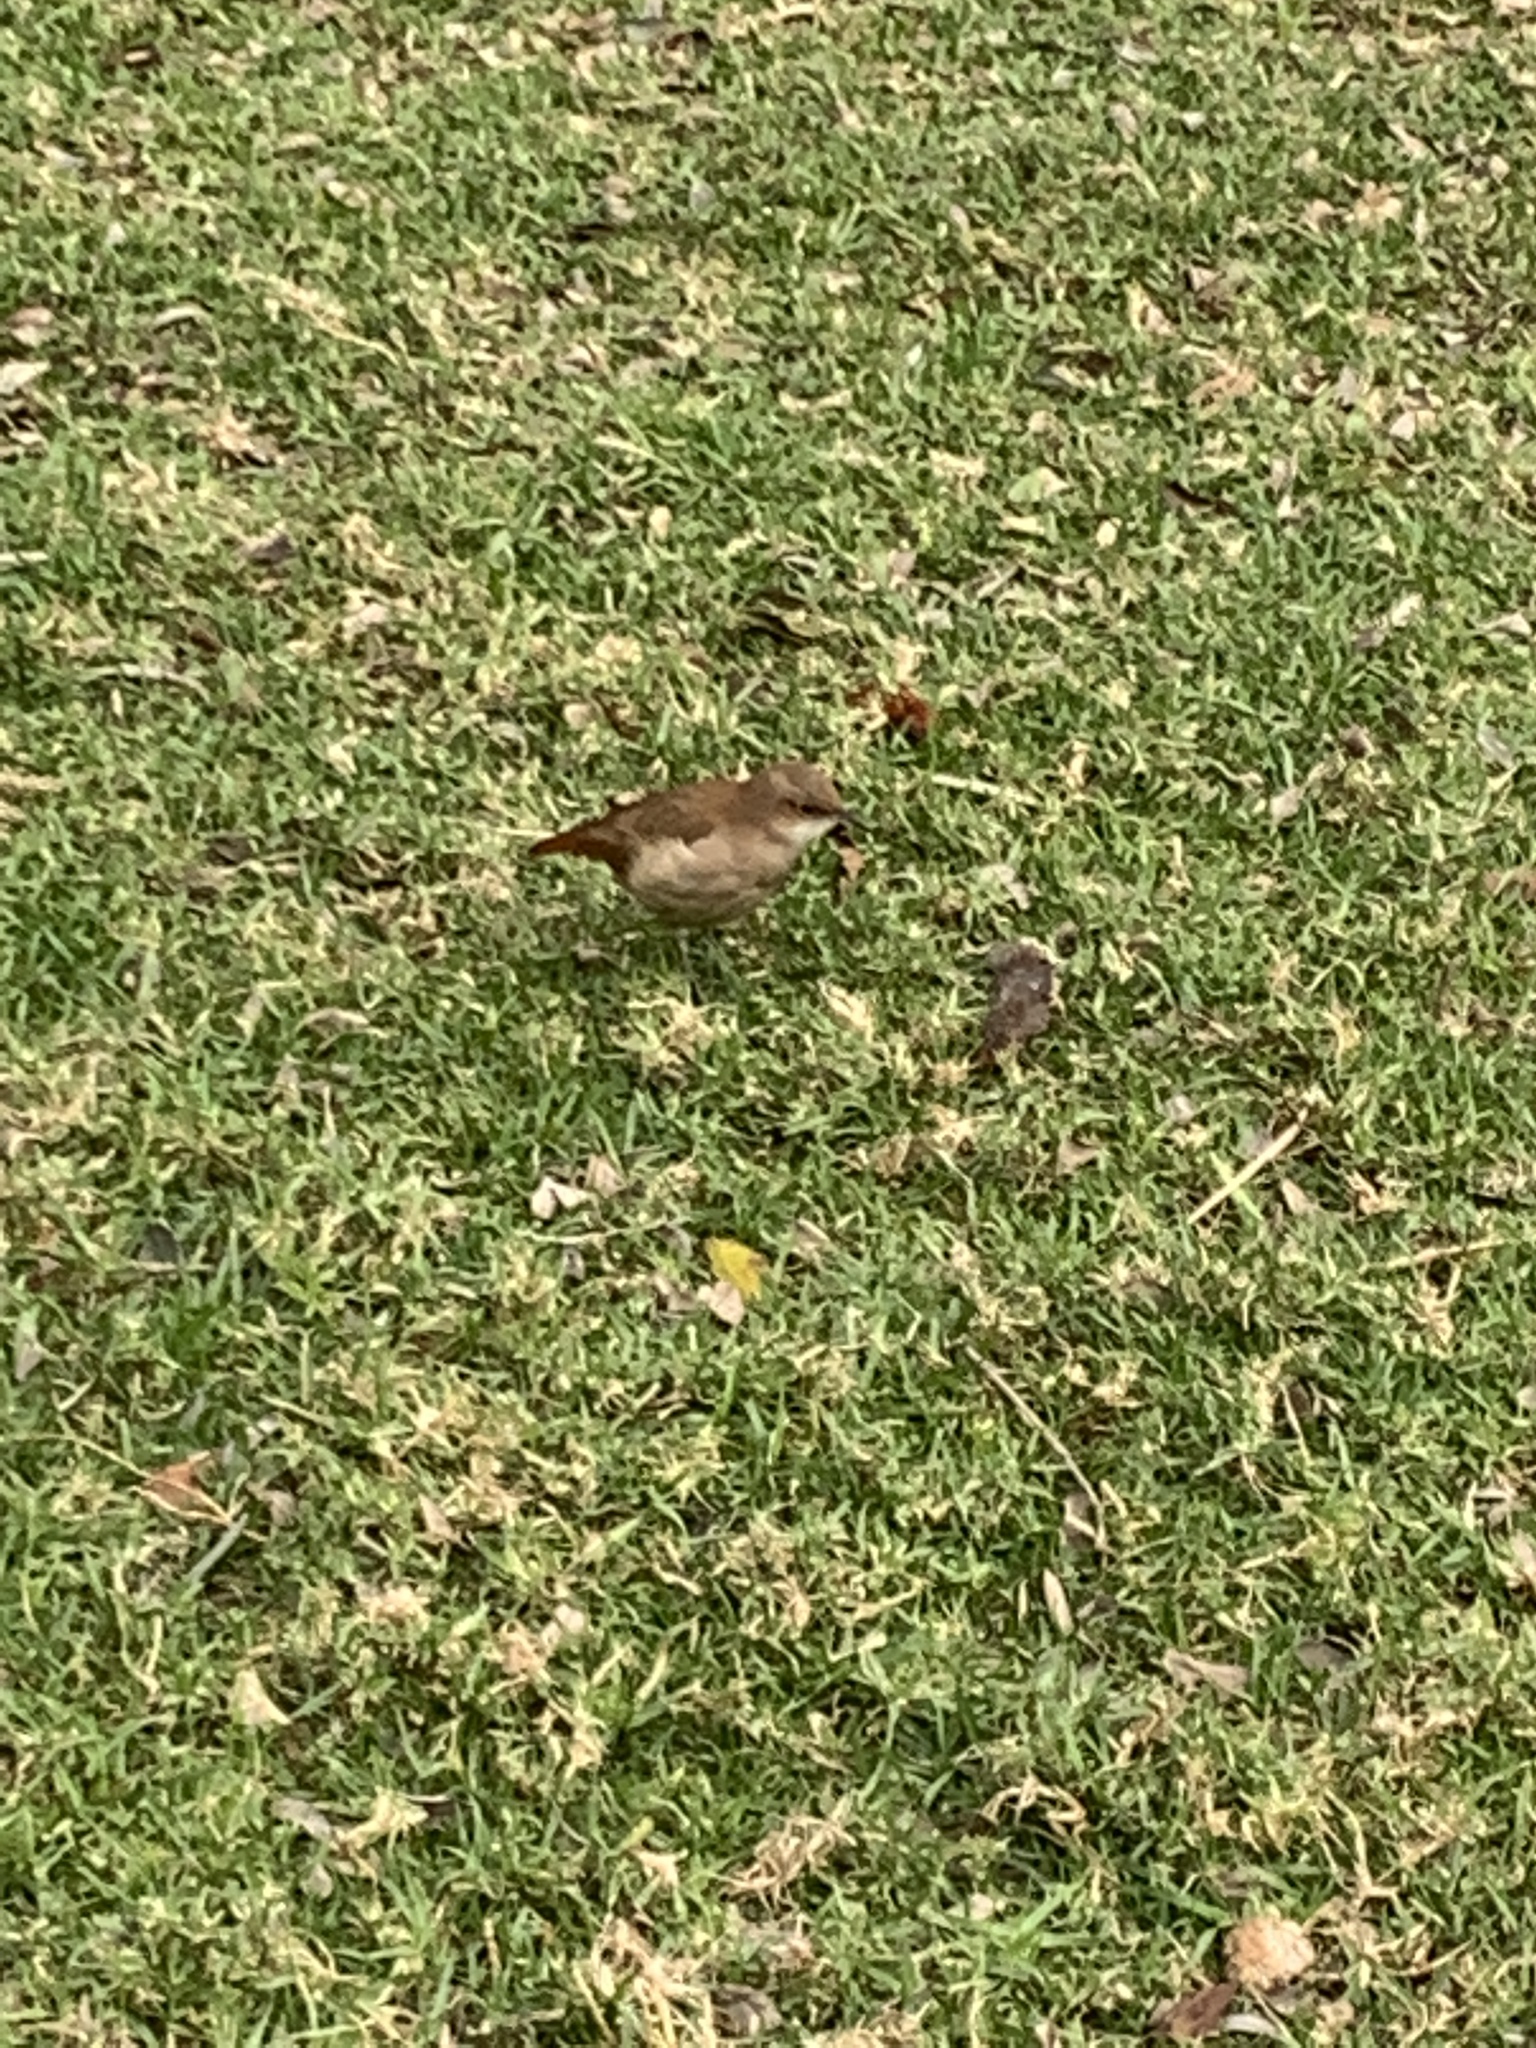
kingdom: Animalia
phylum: Chordata
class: Aves
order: Passeriformes
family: Furnariidae
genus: Furnarius
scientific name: Furnarius rufus
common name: Rufous hornero
